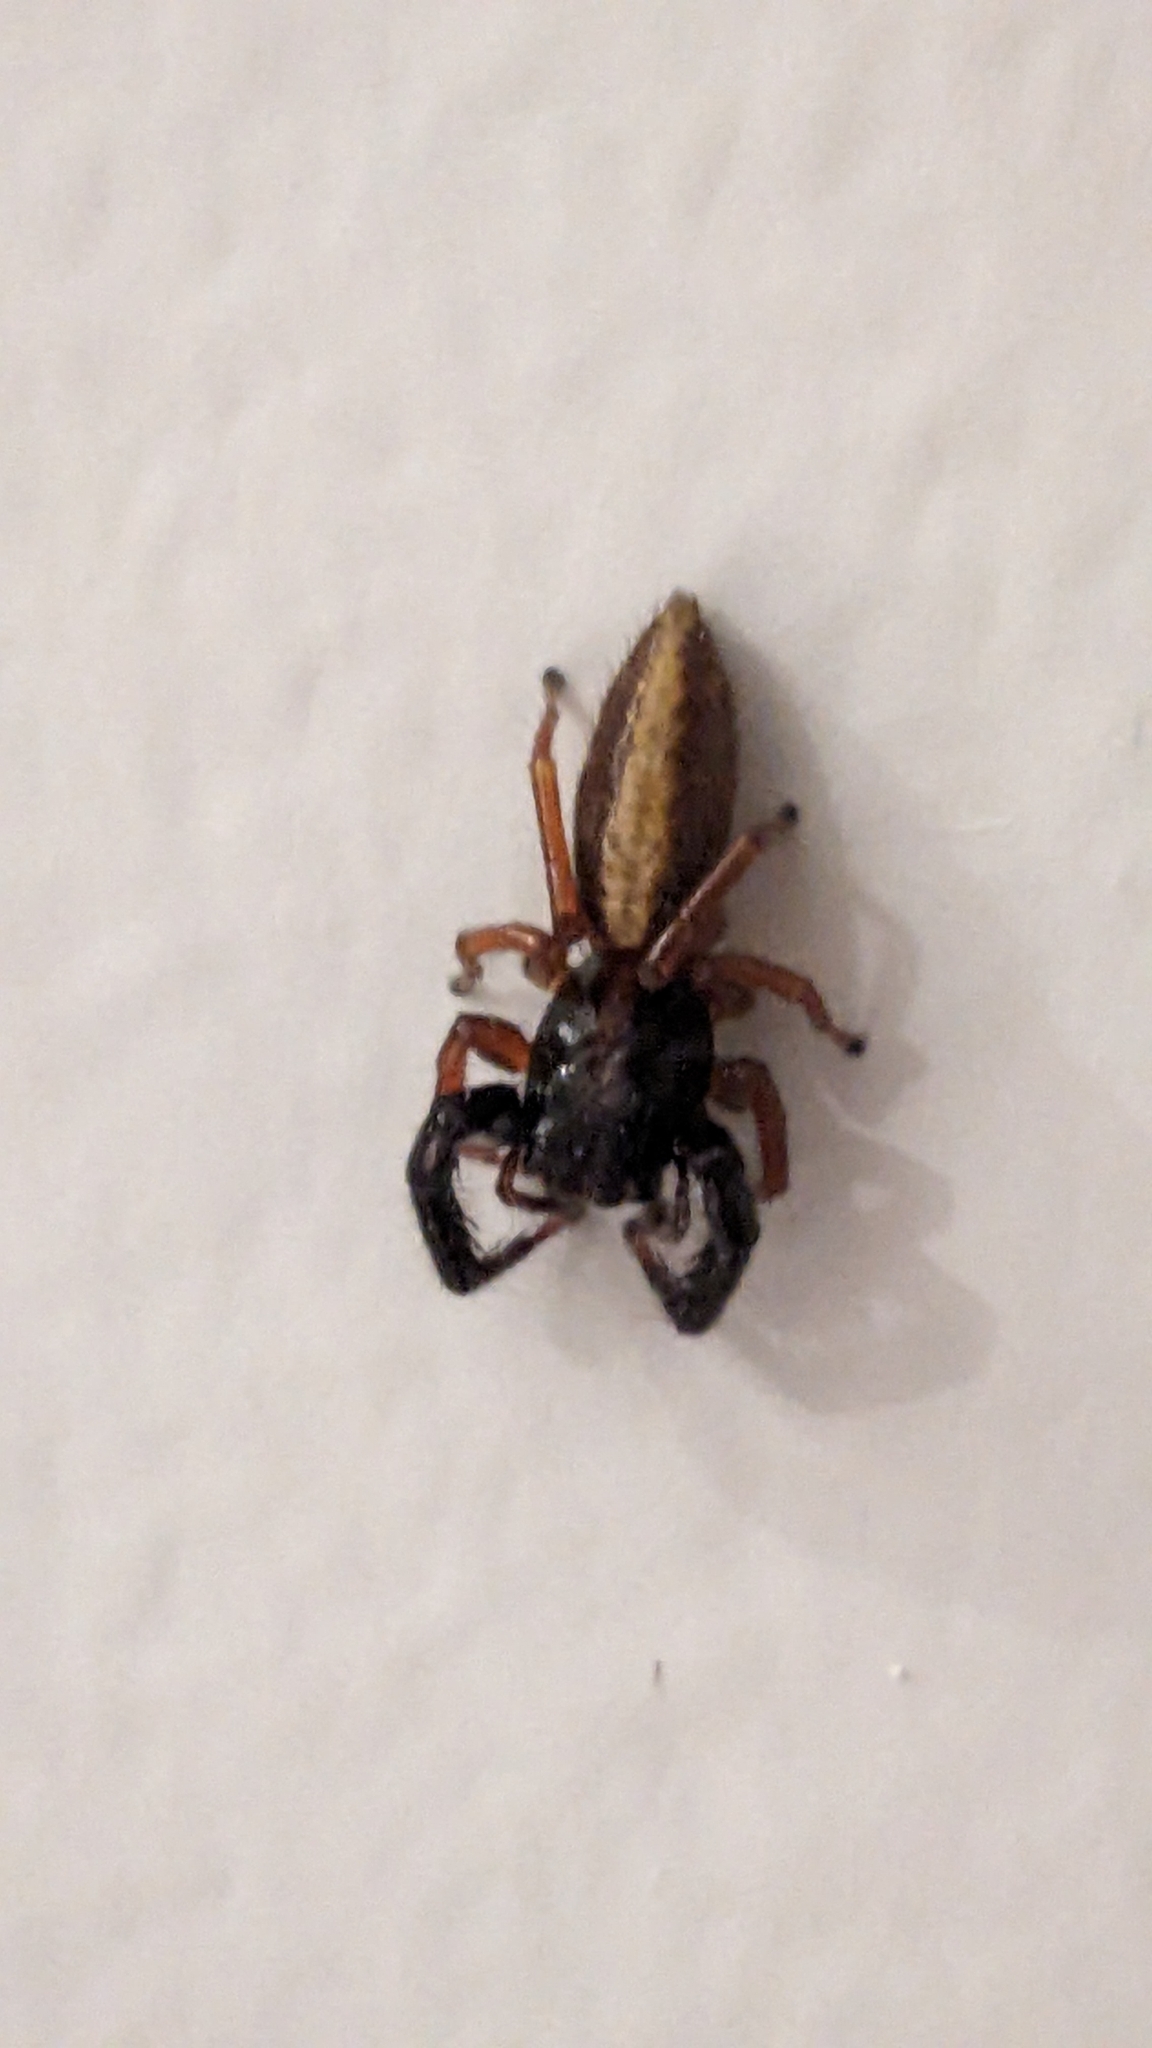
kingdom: Animalia
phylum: Arthropoda
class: Arachnida
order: Araneae
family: Salticidae
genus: Trite
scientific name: Trite planiceps
